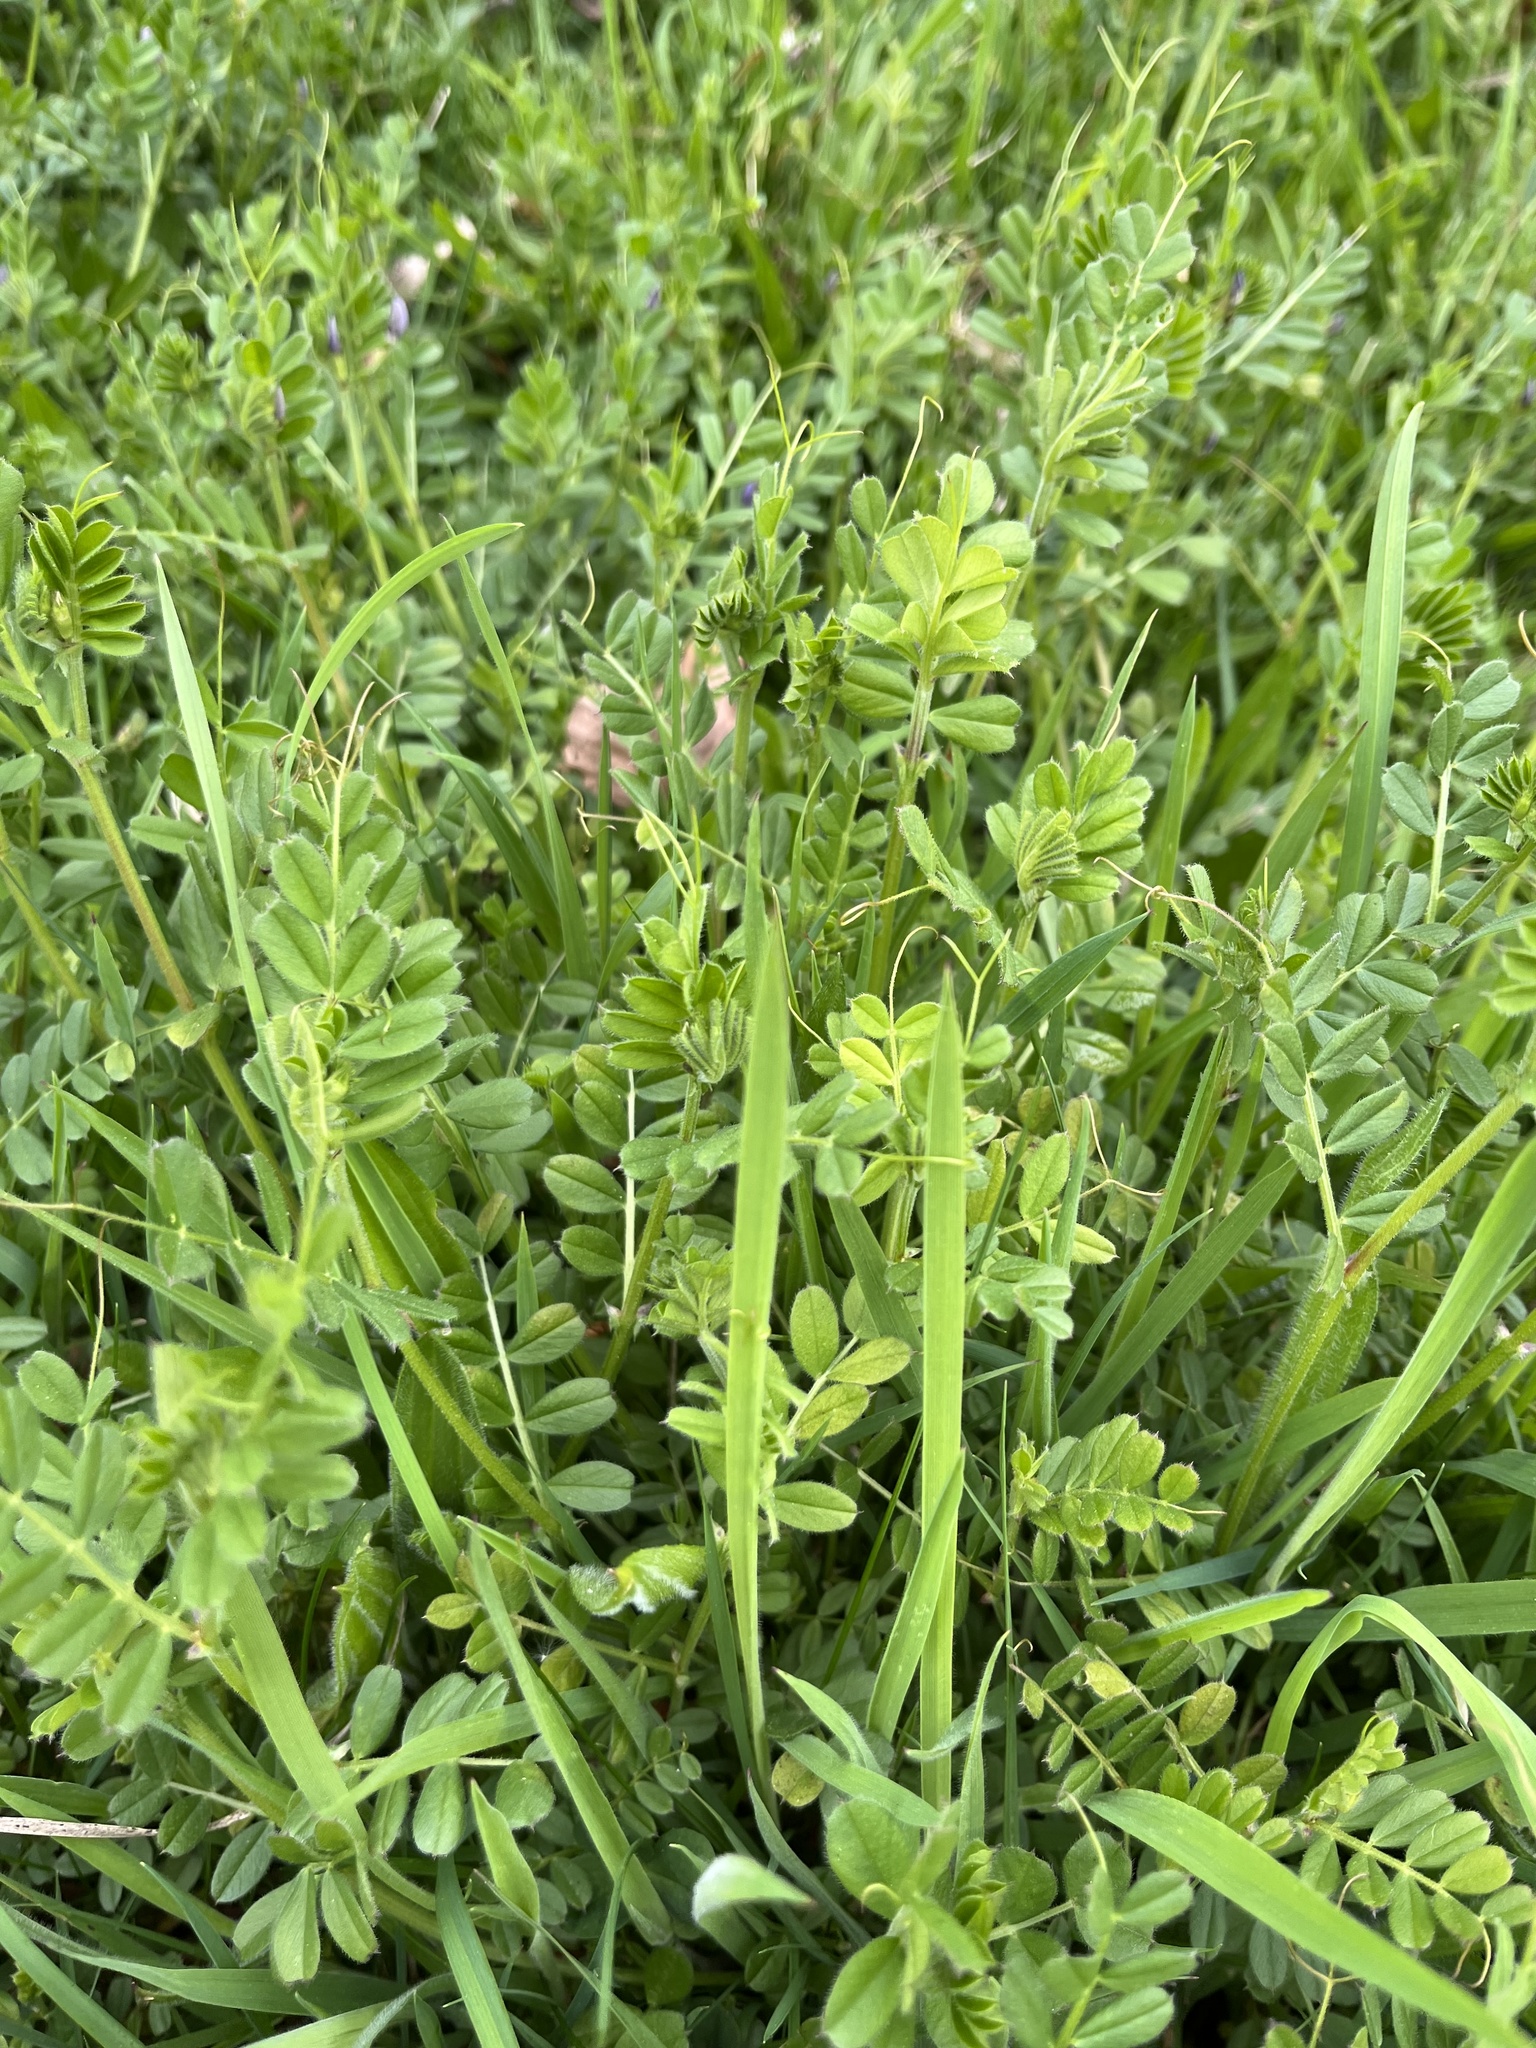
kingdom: Plantae
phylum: Tracheophyta
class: Magnoliopsida
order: Fabales
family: Fabaceae
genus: Vicia
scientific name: Vicia sativa
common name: Garden vetch
